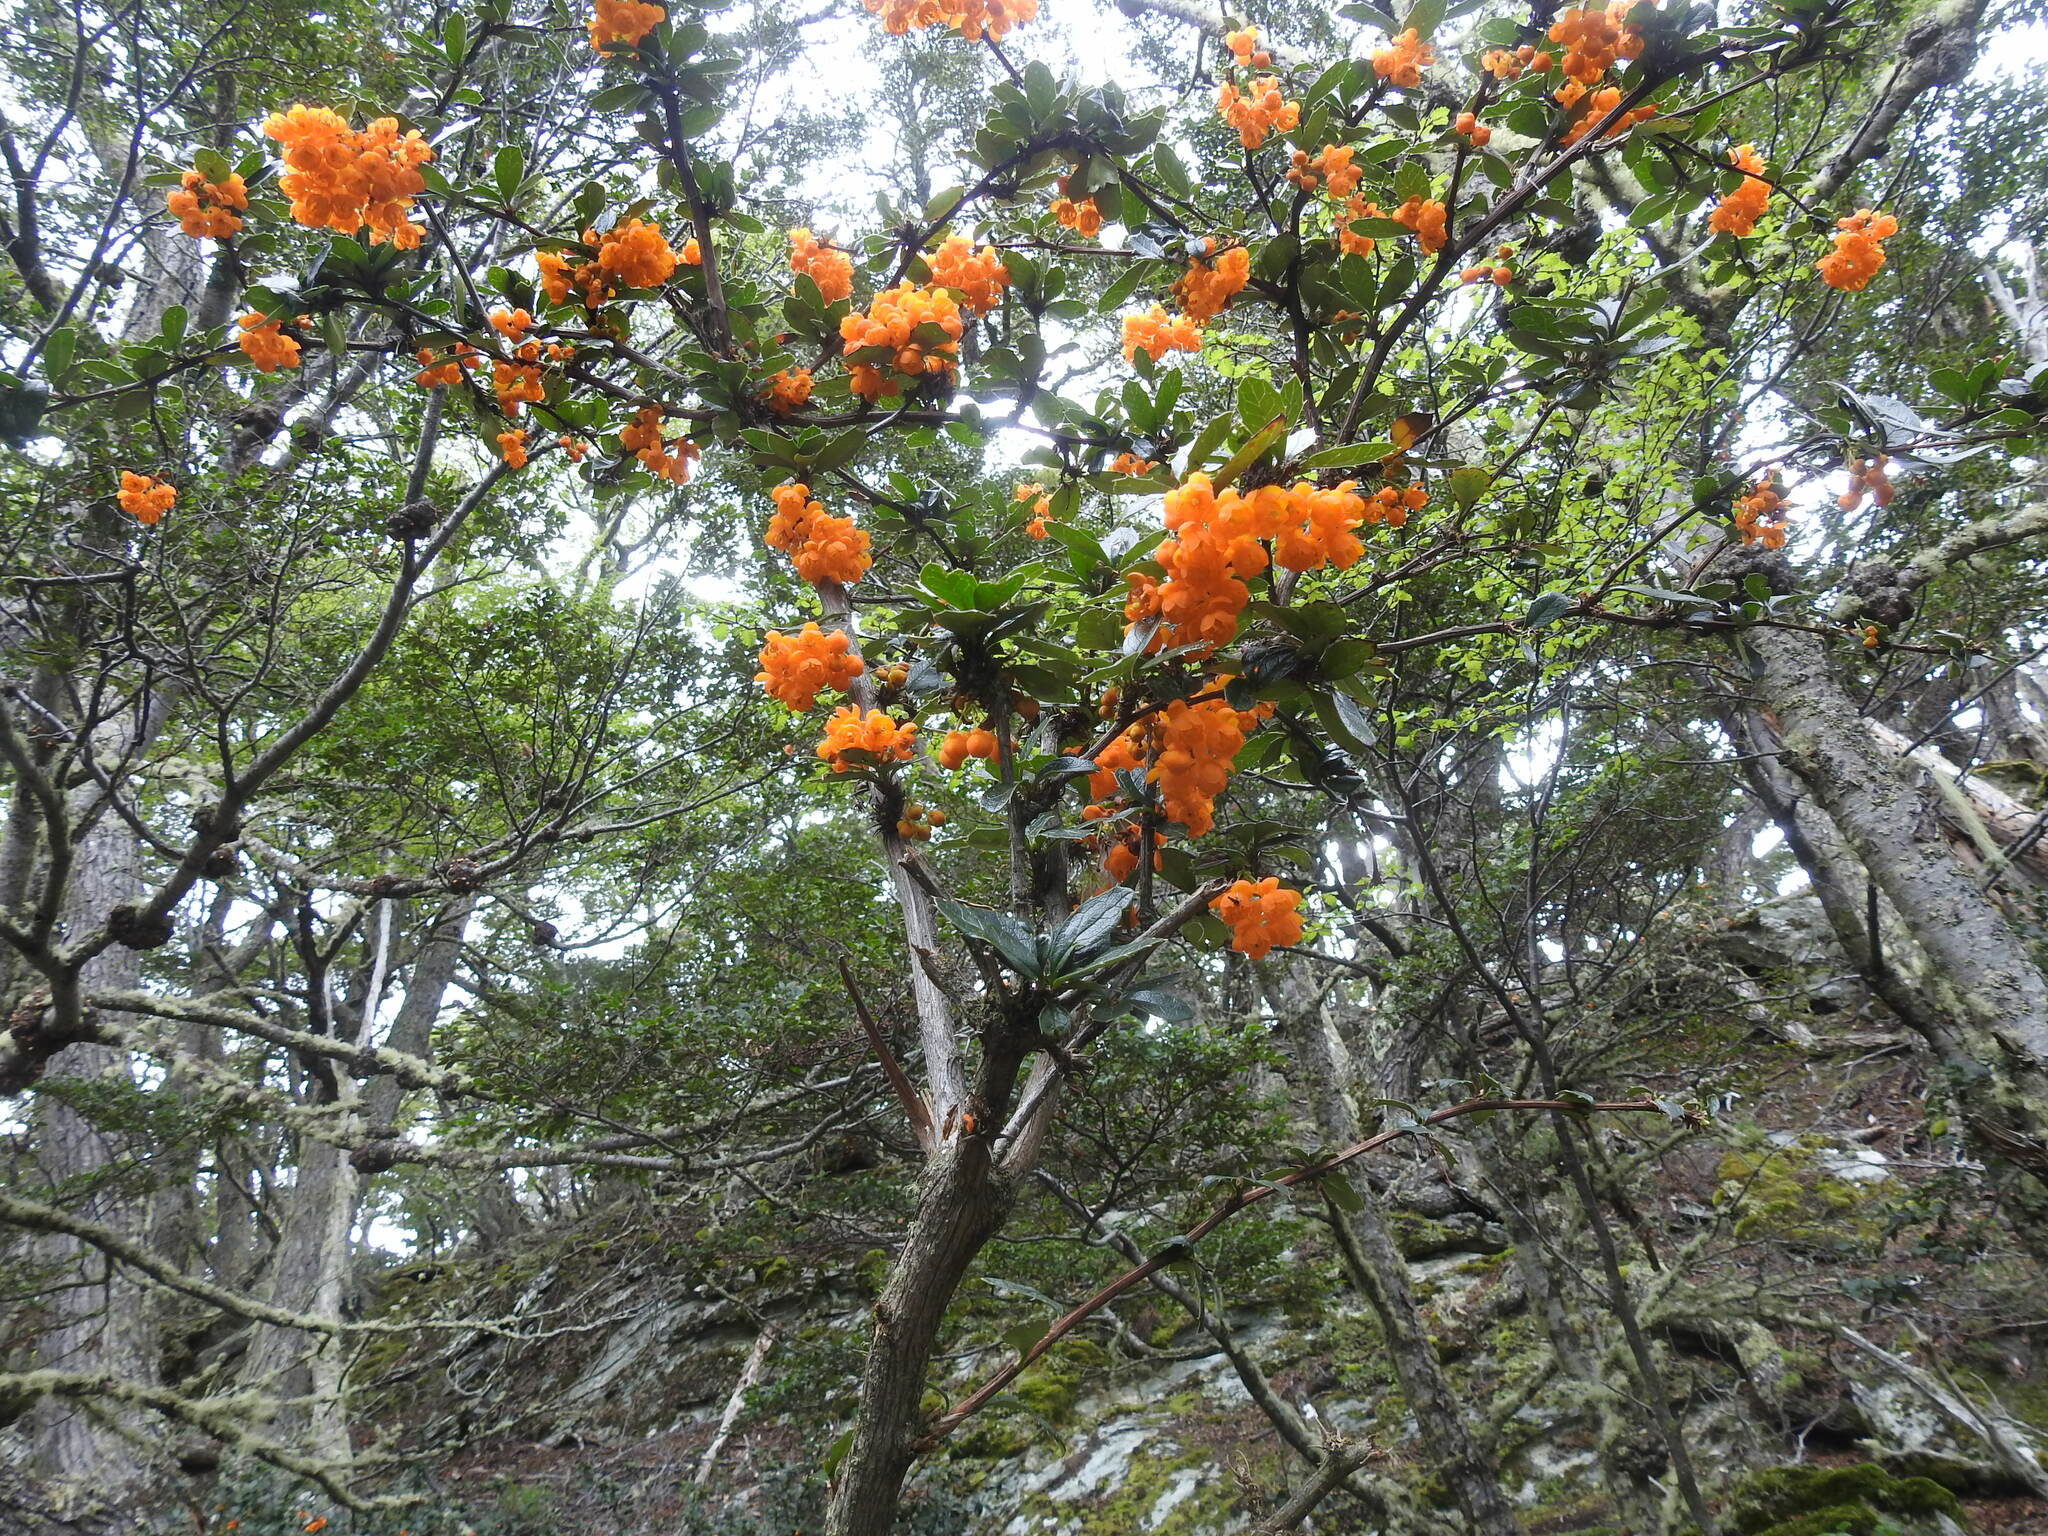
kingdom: Plantae
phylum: Tracheophyta
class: Magnoliopsida
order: Ranunculales
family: Berberidaceae
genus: Berberis
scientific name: Berberis ilicifolia
